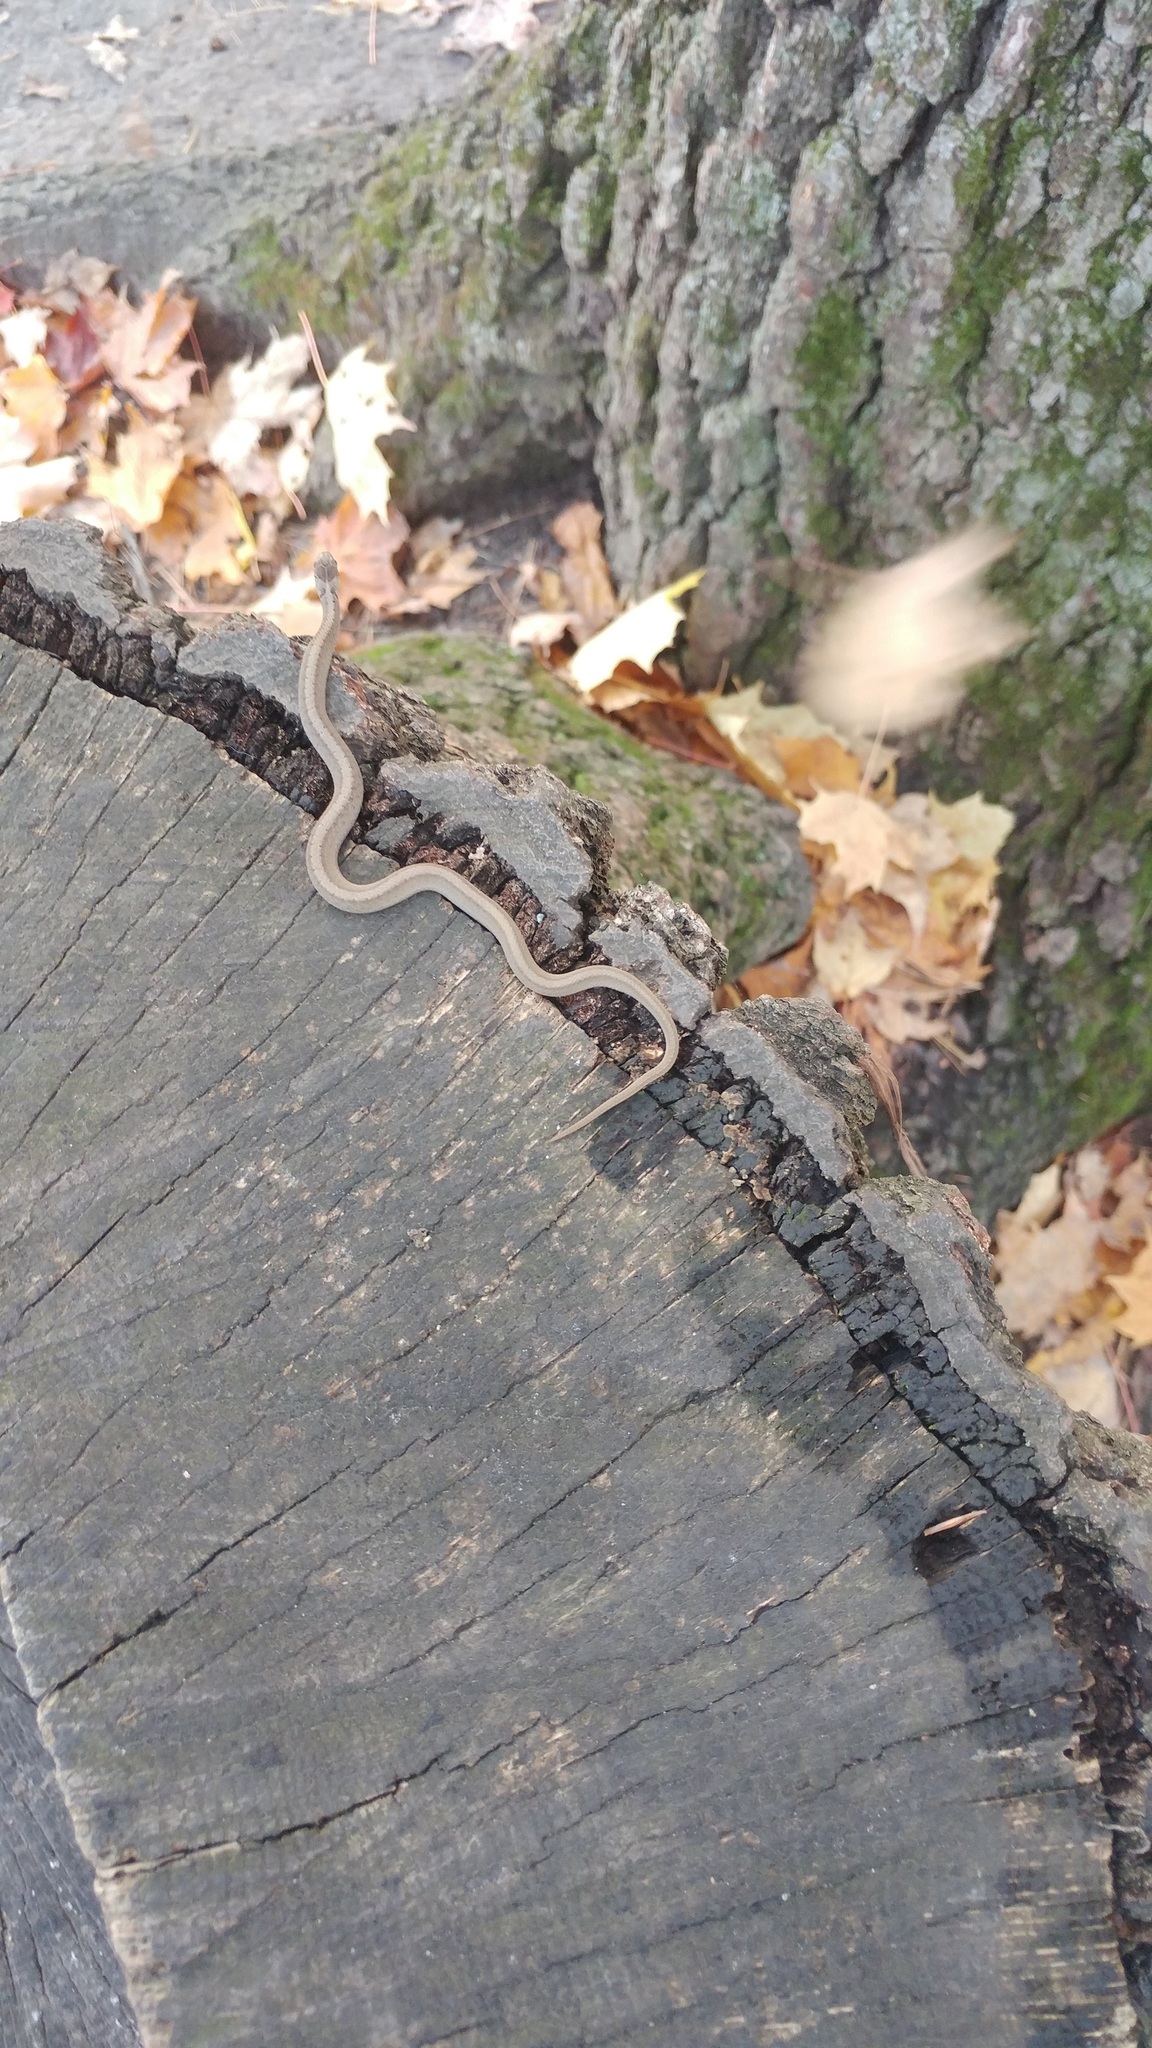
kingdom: Animalia
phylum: Chordata
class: Squamata
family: Colubridae
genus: Storeria
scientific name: Storeria dekayi
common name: (dekay’s) brown snake
